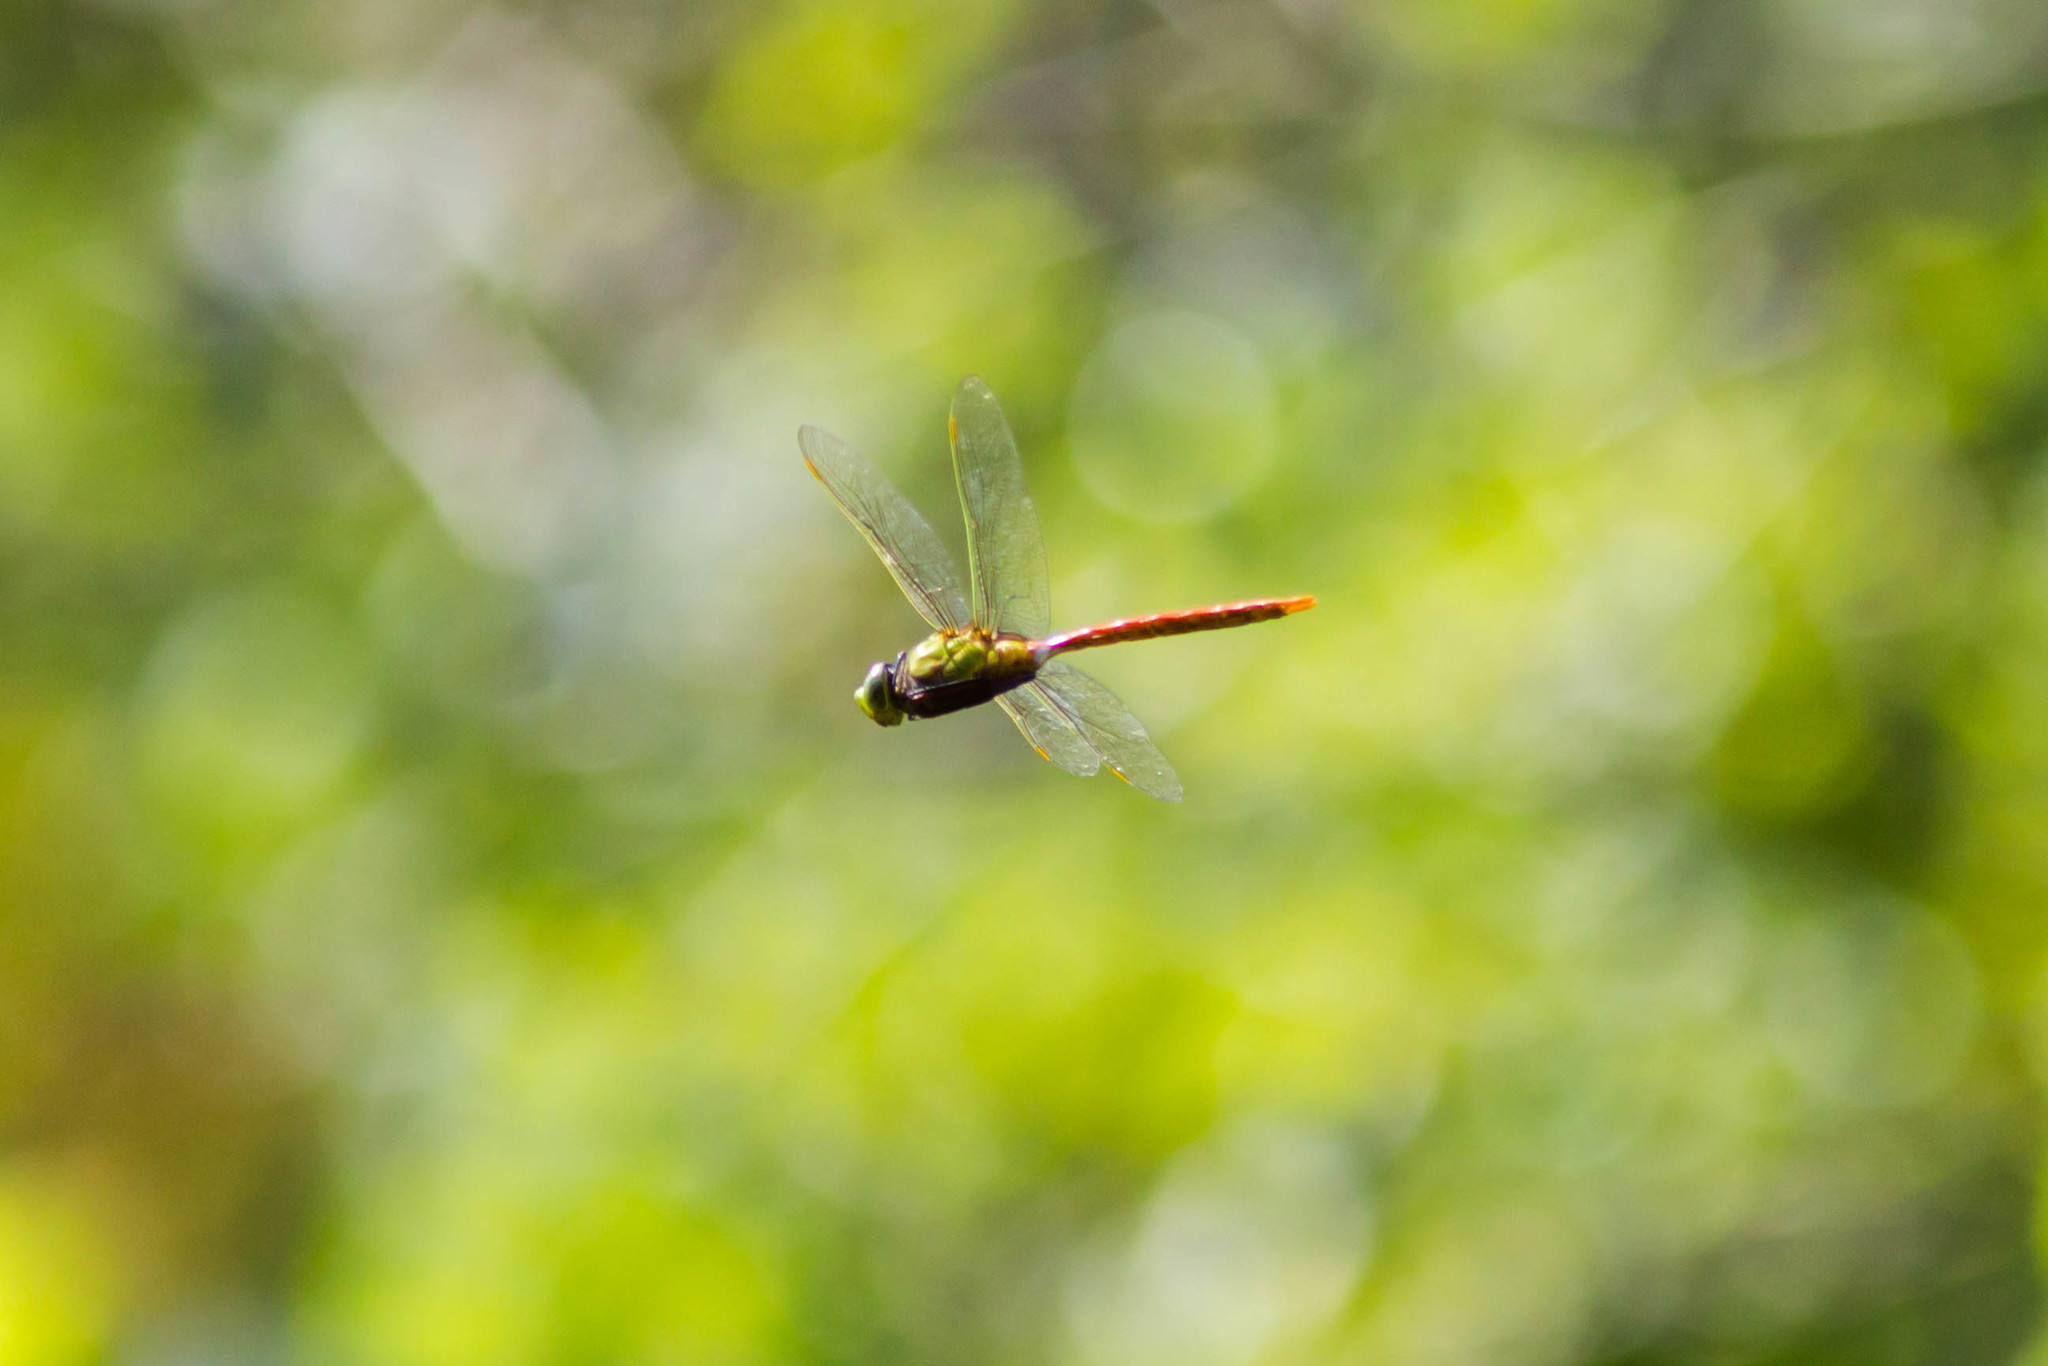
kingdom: Animalia
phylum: Arthropoda
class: Insecta
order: Odonata
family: Aeshnidae
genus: Anax
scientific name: Anax longipes
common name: Comet darner
